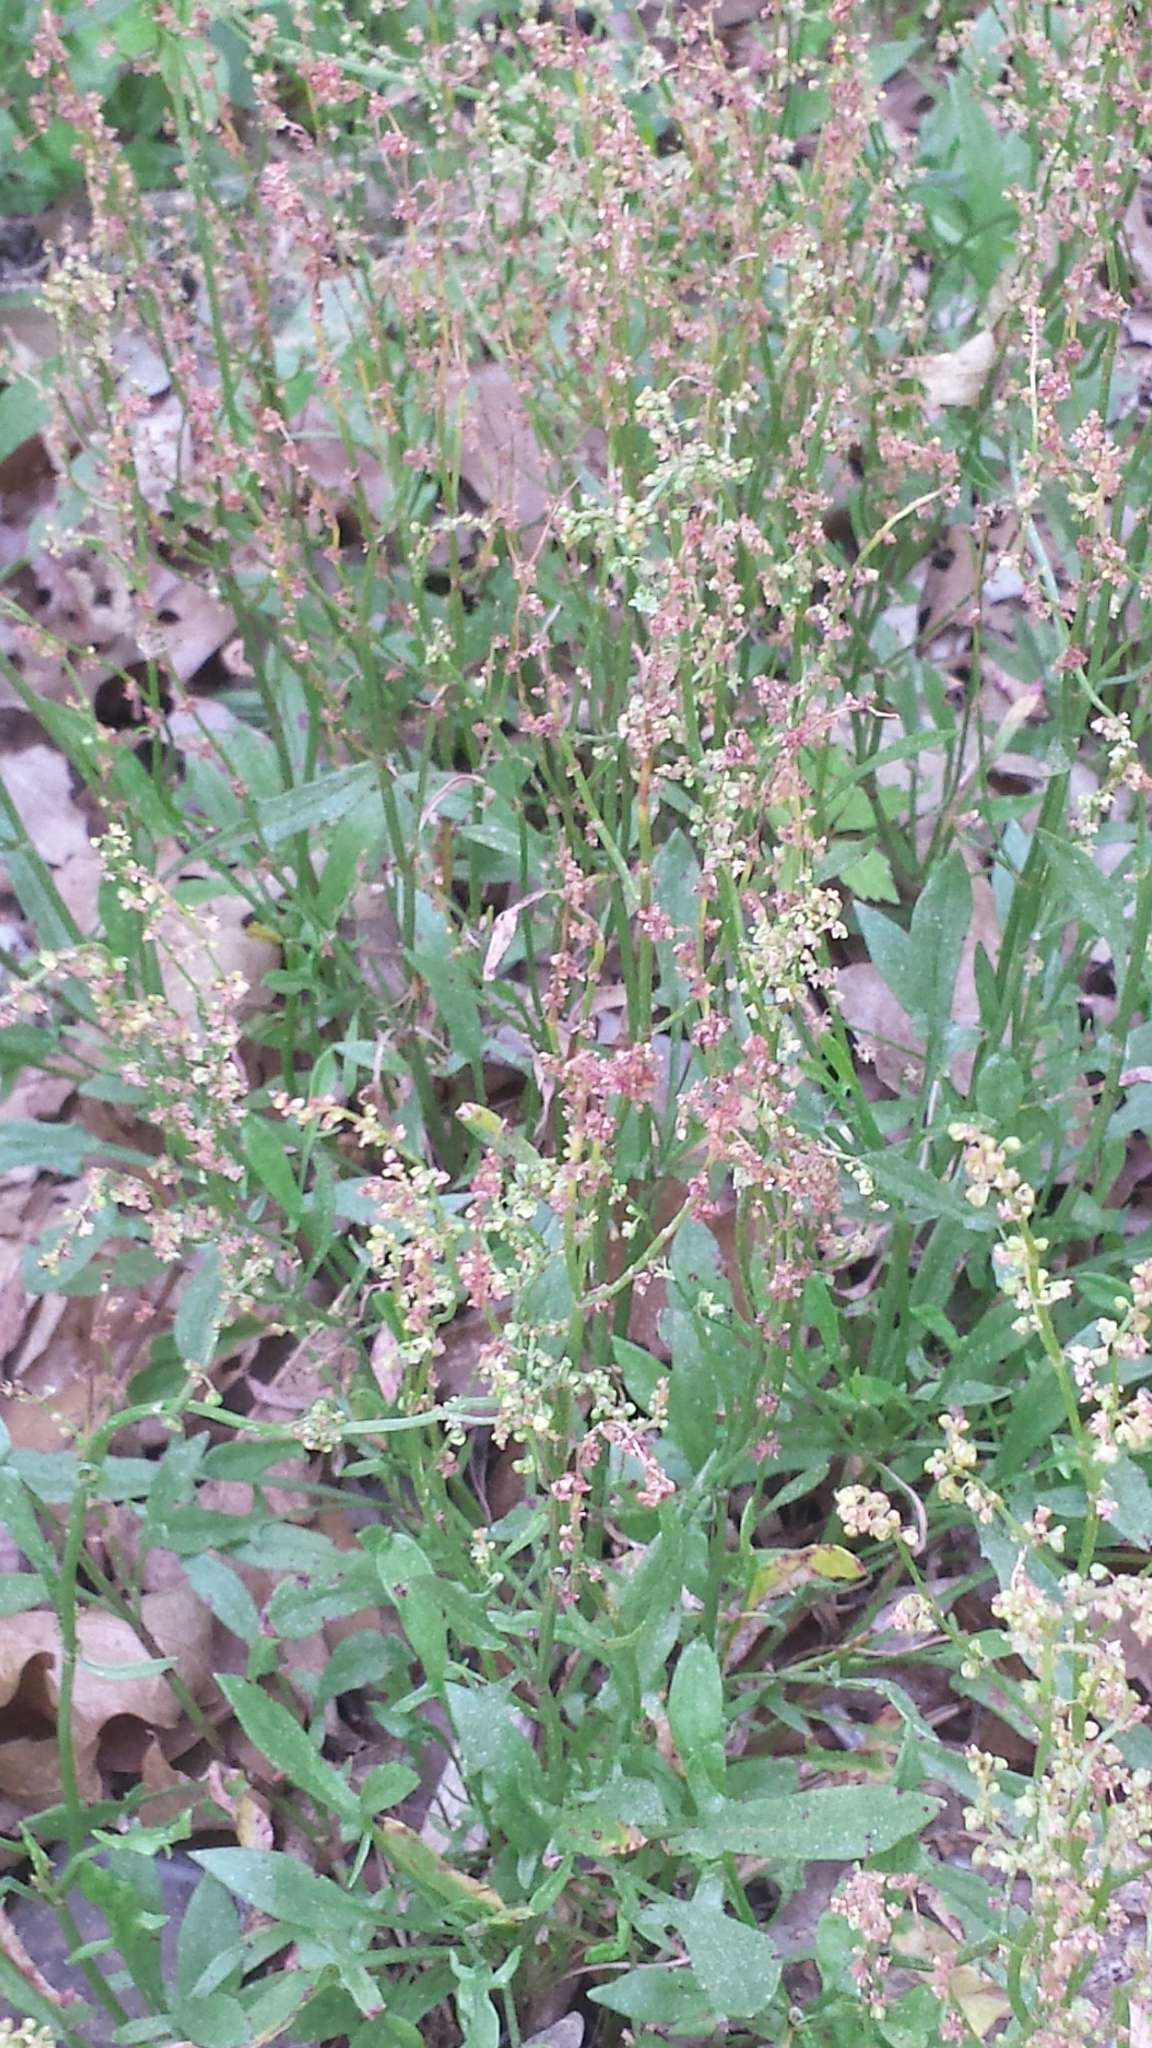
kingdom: Plantae
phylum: Tracheophyta
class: Magnoliopsida
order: Caryophyllales
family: Polygonaceae
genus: Rumex
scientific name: Rumex acetosella
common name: Common sheep sorrel
